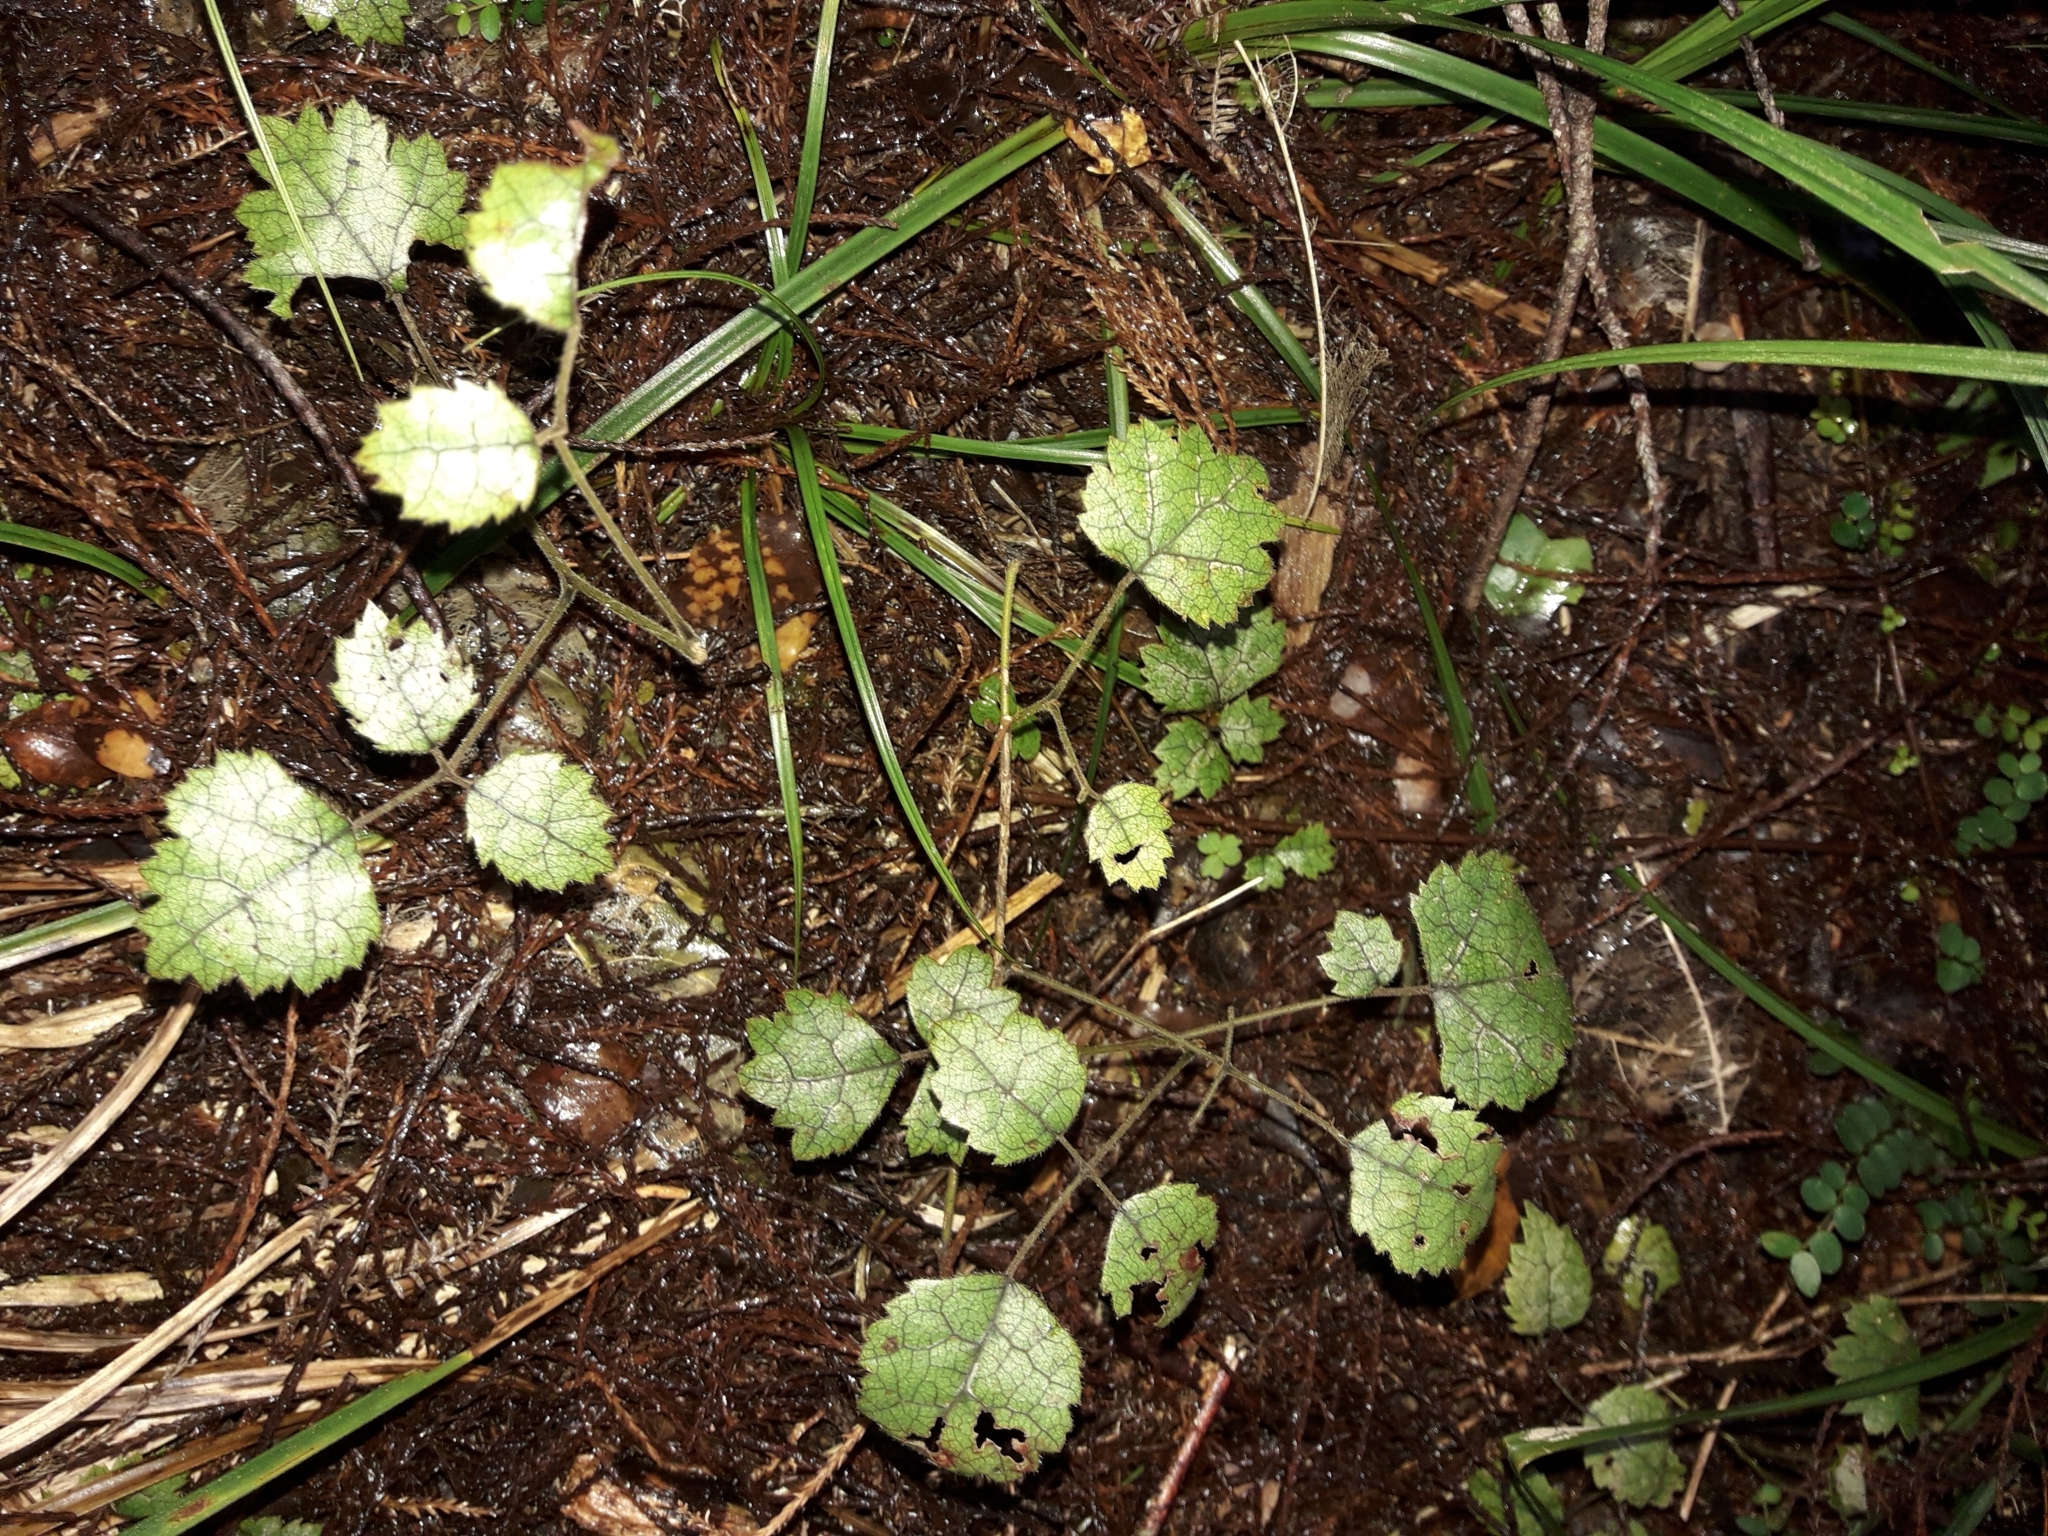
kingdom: Plantae
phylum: Tracheophyta
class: Magnoliopsida
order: Rosales
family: Rosaceae
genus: Rubus
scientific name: Rubus australis
